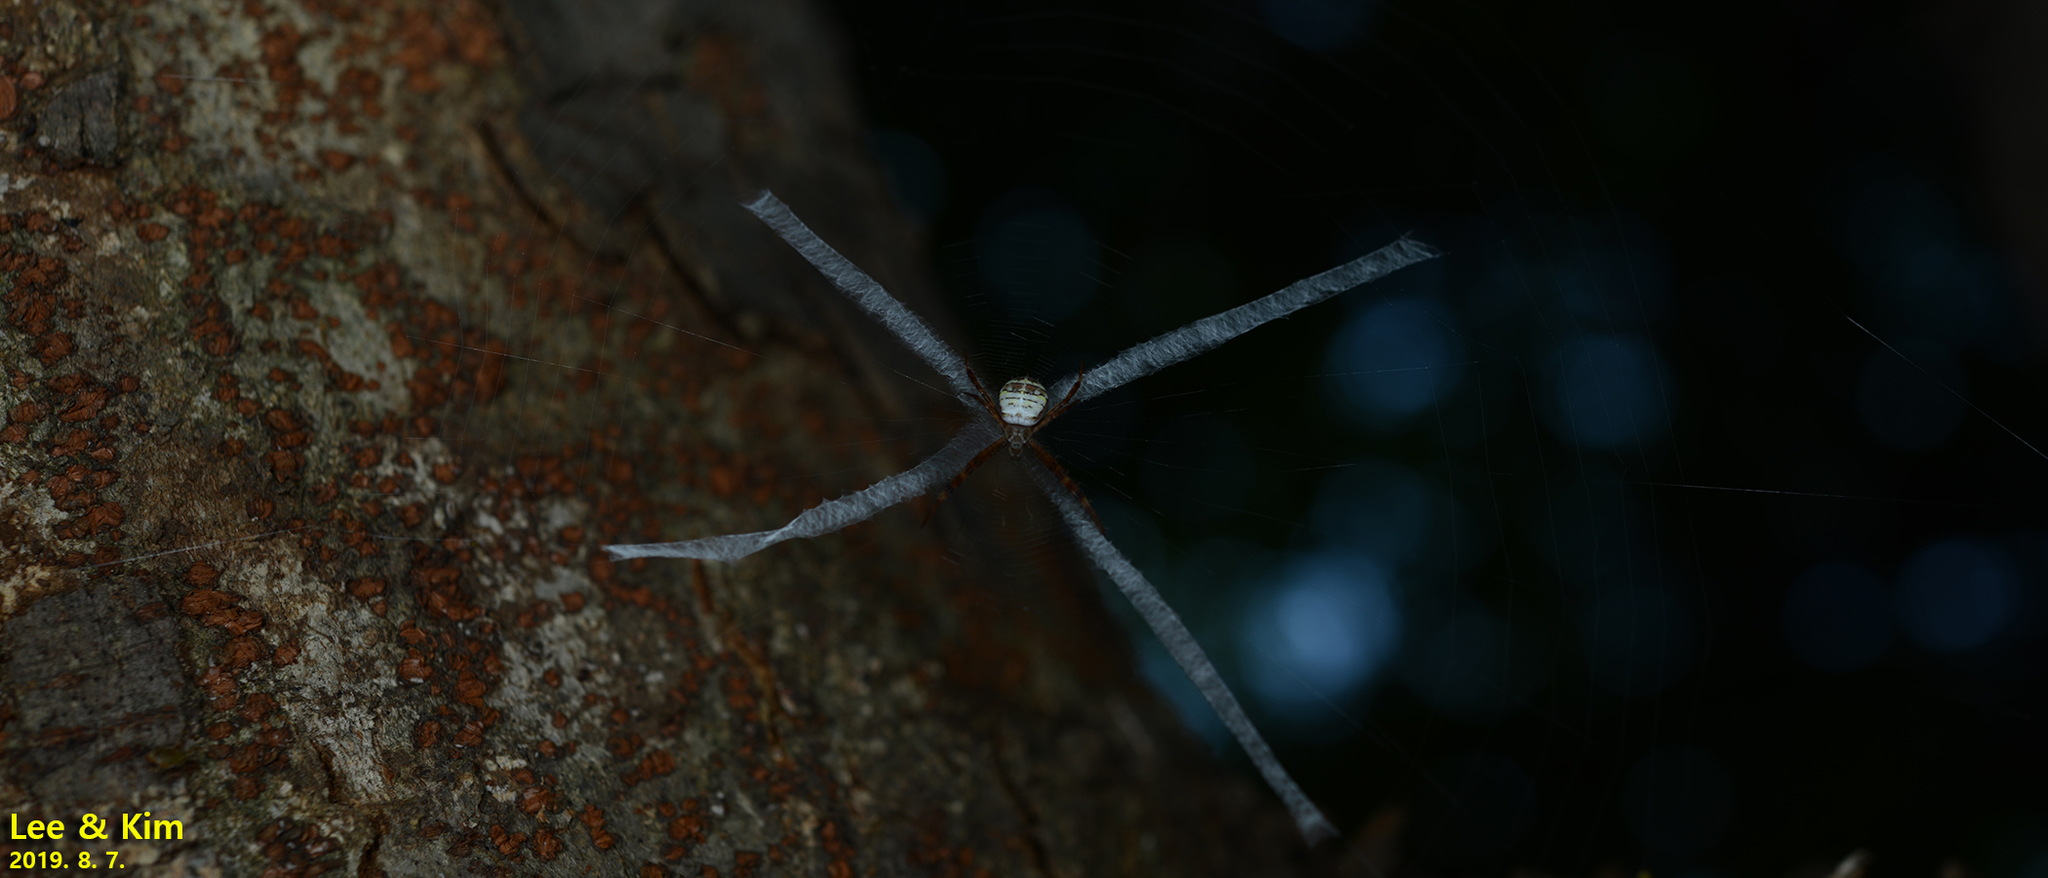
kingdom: Animalia
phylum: Arthropoda
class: Arachnida
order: Araneae
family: Araneidae
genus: Argiope
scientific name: Argiope minuta
